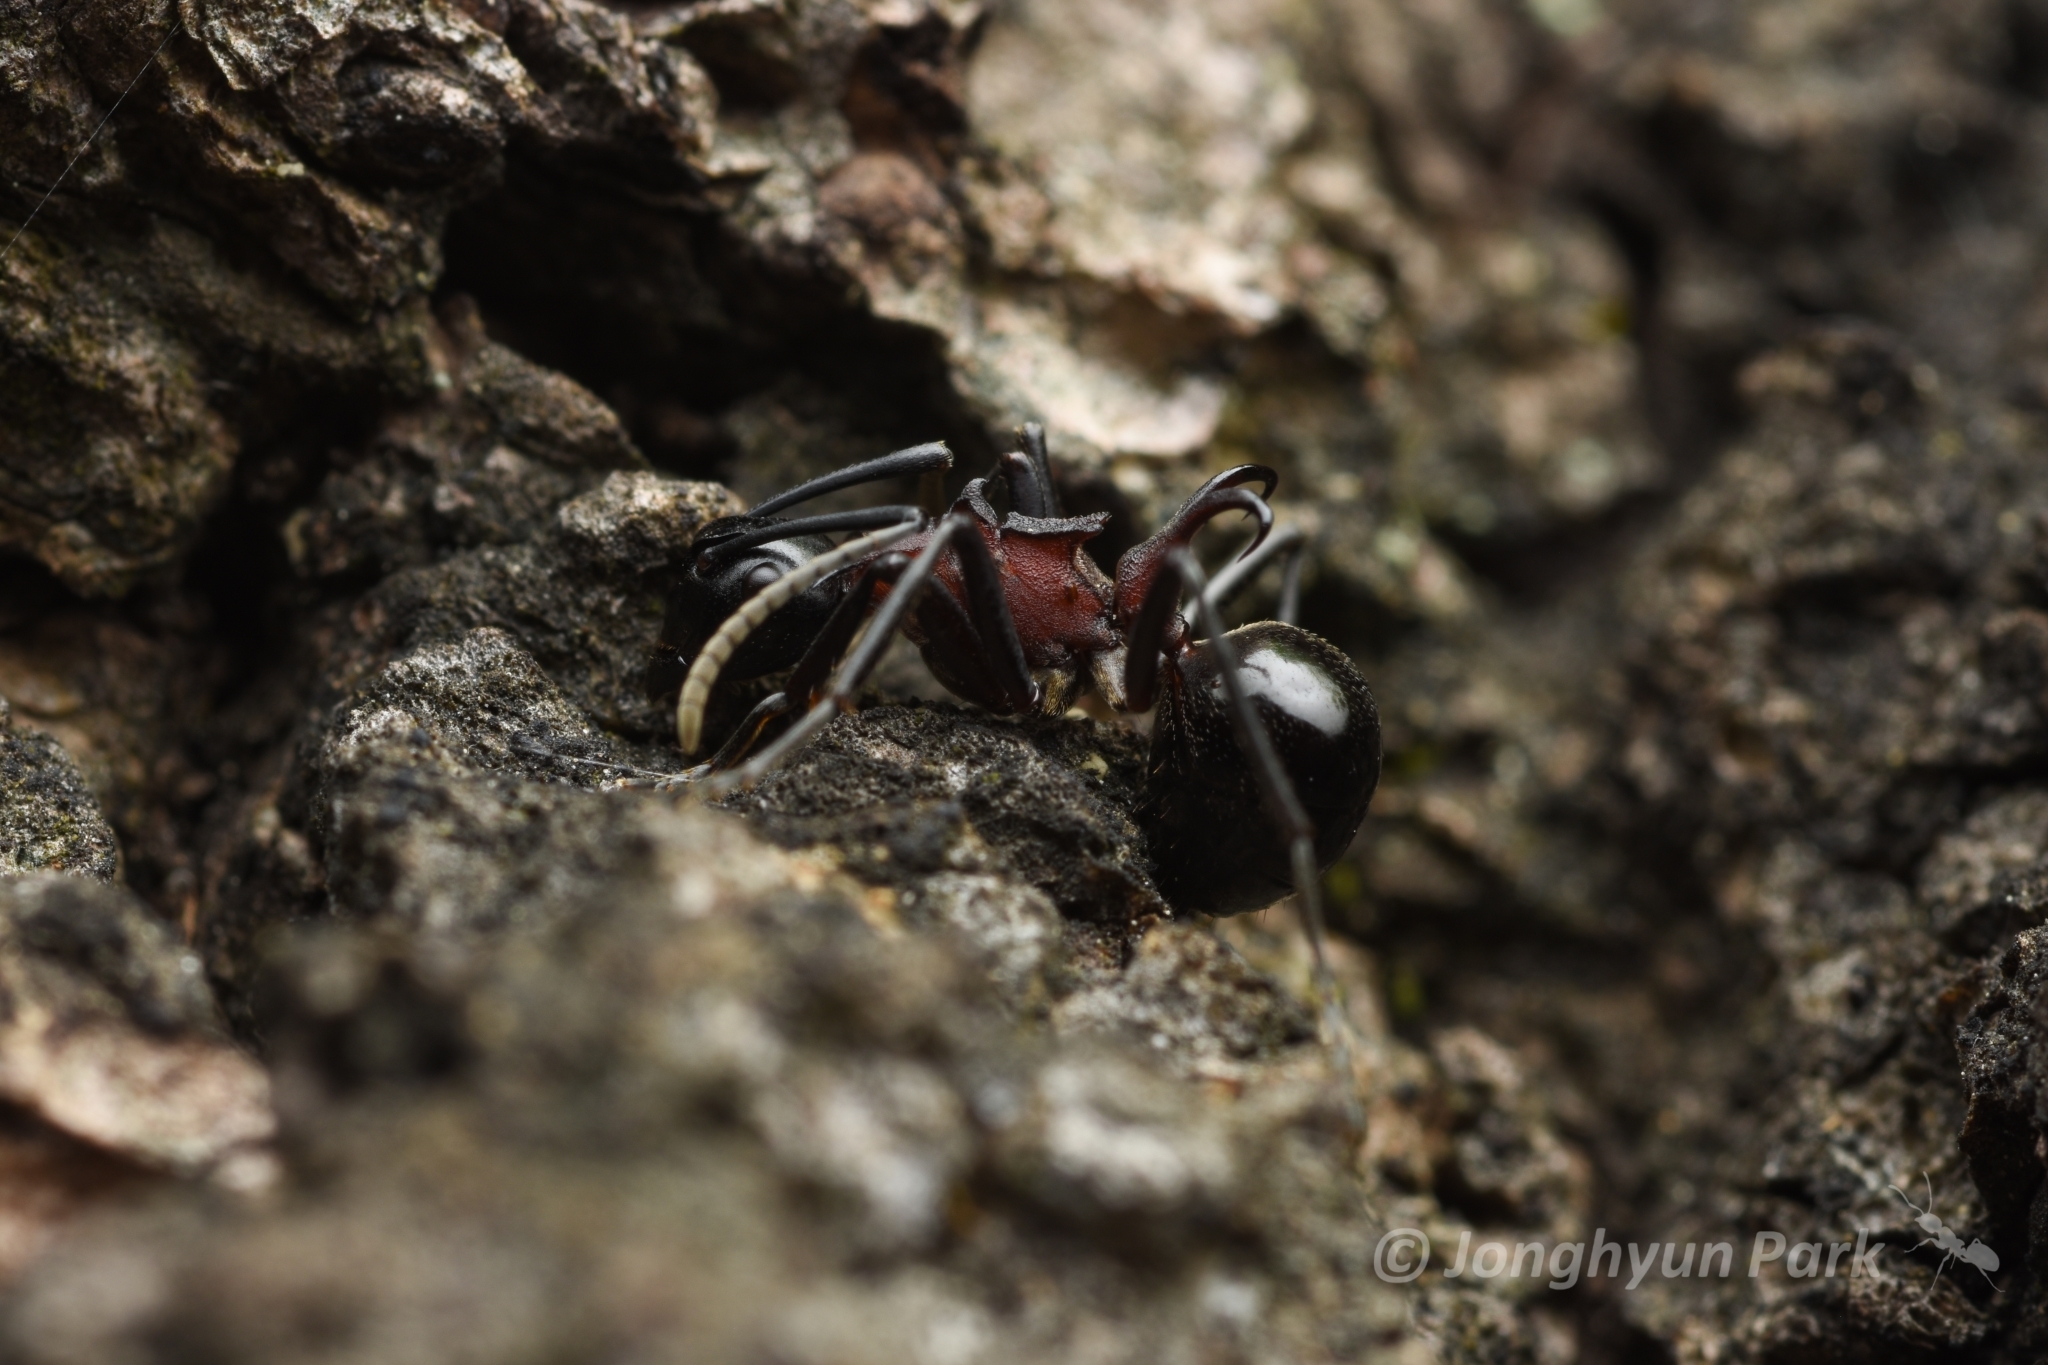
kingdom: Animalia
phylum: Arthropoda
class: Insecta
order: Hymenoptera
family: Formicidae
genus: Polyrhachis
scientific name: Polyrhachis lamellidens
